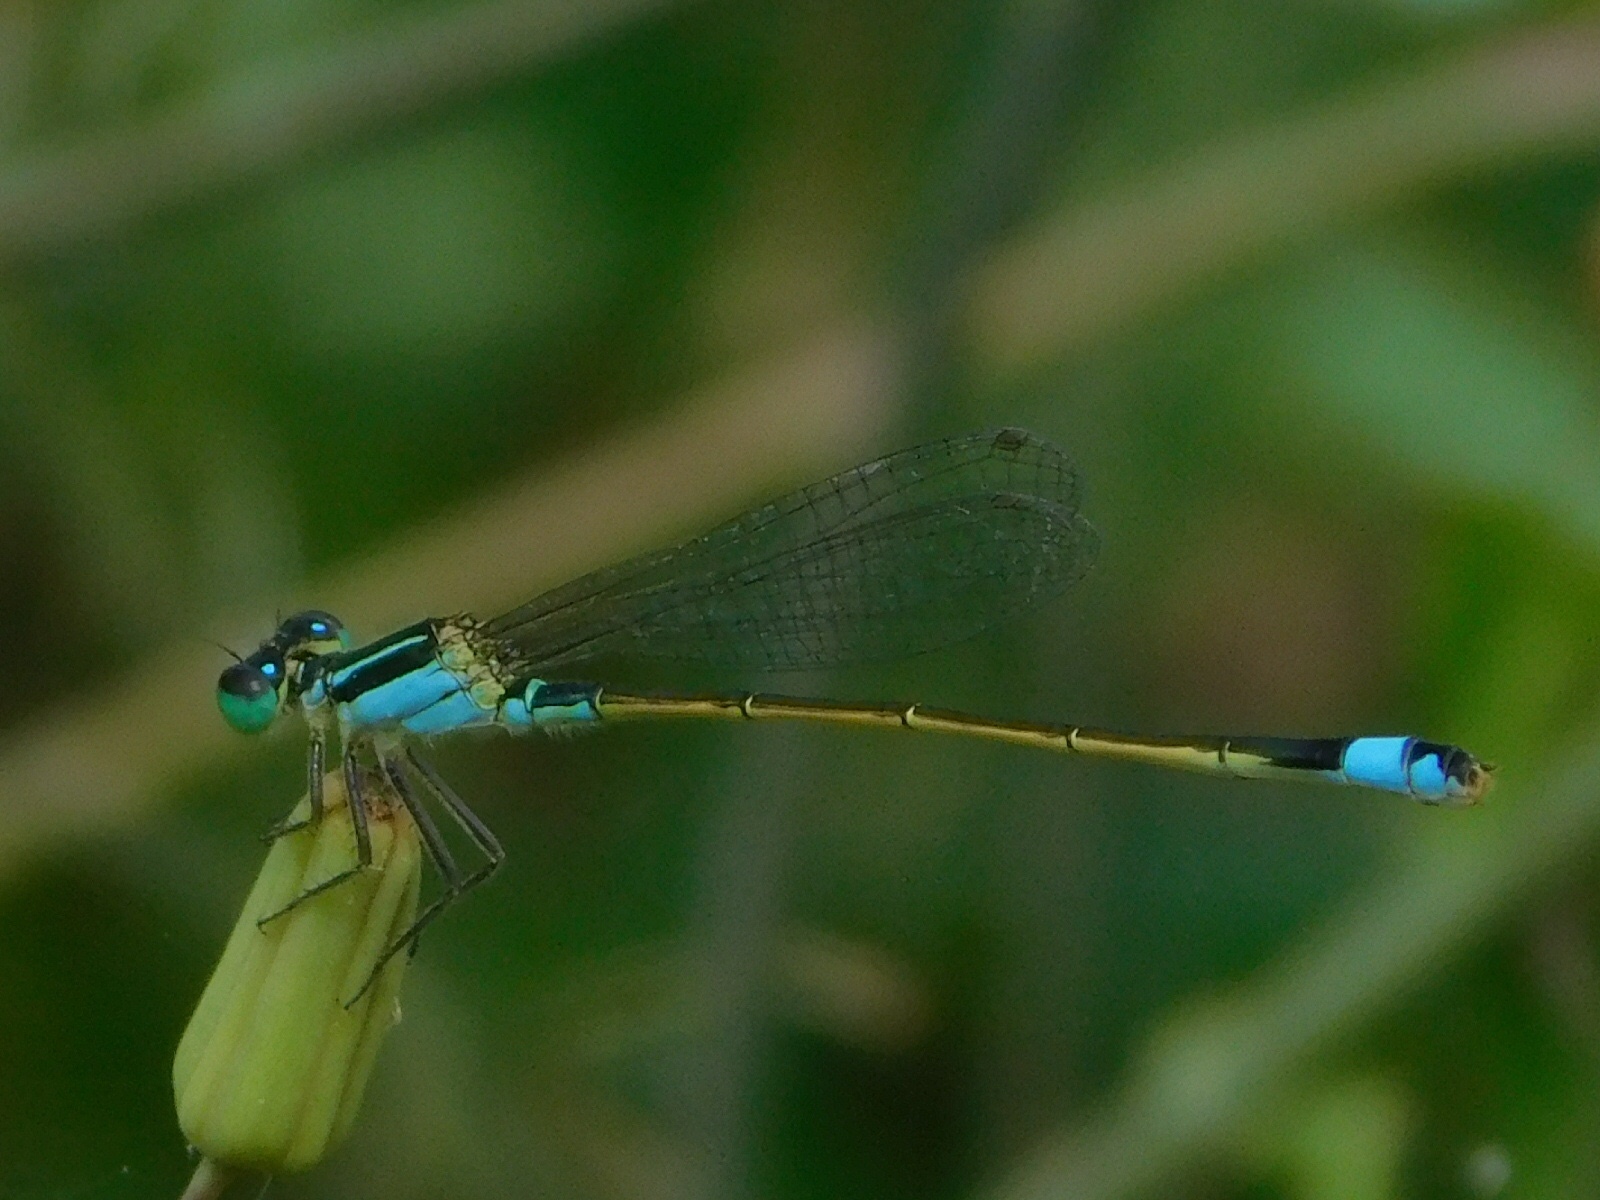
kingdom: Animalia
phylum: Arthropoda
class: Insecta
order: Odonata
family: Coenagrionidae
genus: Ischnura
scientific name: Ischnura ramburii
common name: Rambur's forktail
